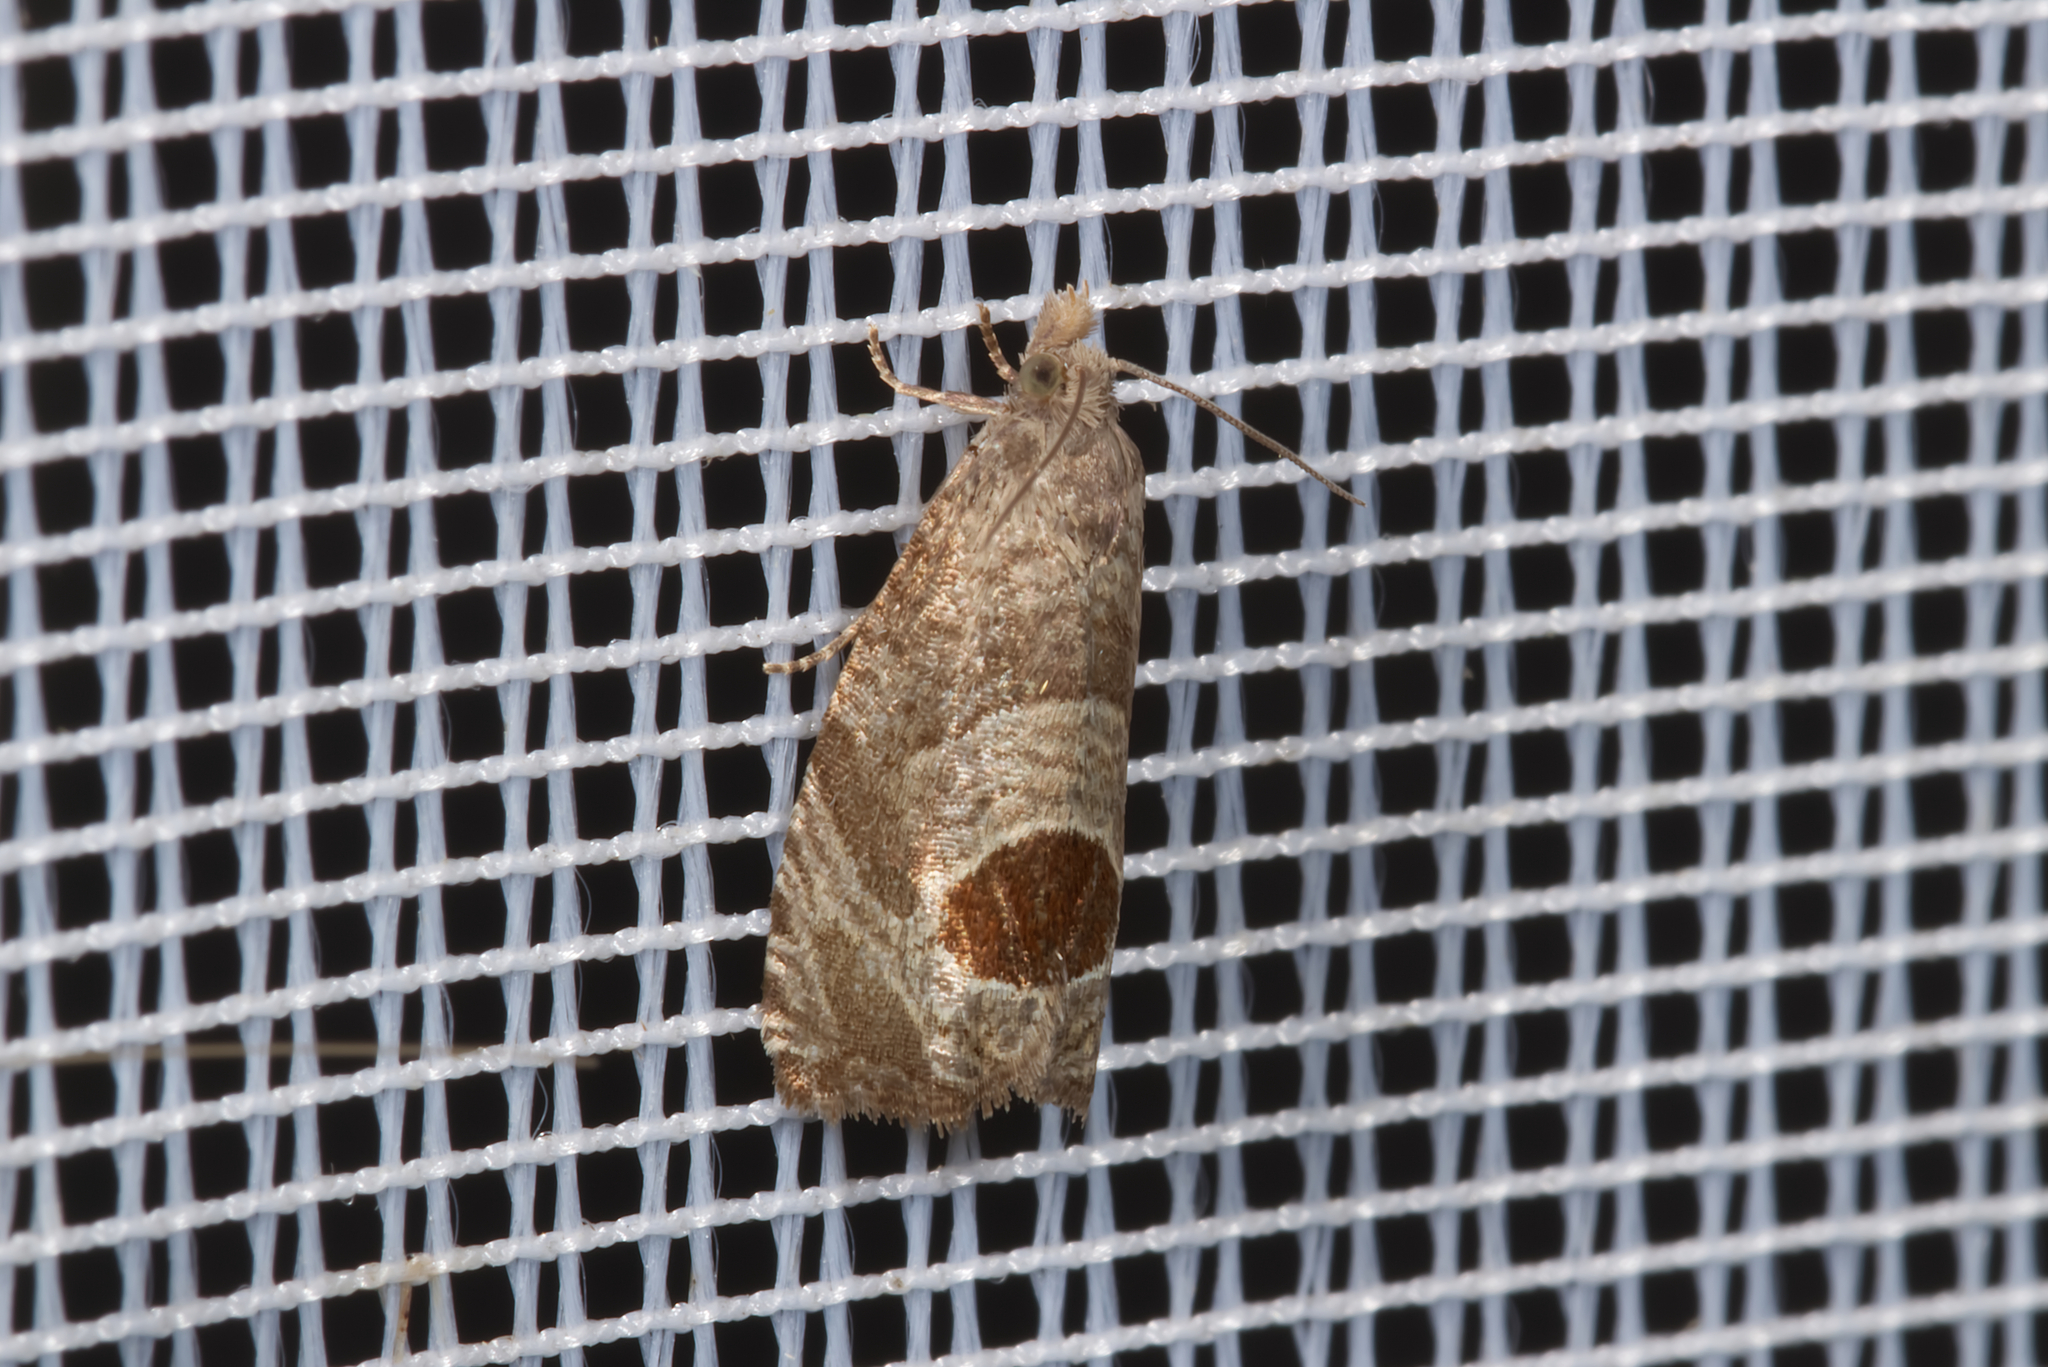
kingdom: Animalia
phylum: Arthropoda
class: Insecta
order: Lepidoptera
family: Tortricidae
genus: Notocelia
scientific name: Notocelia uddmanniana
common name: Bramble shoot moth
